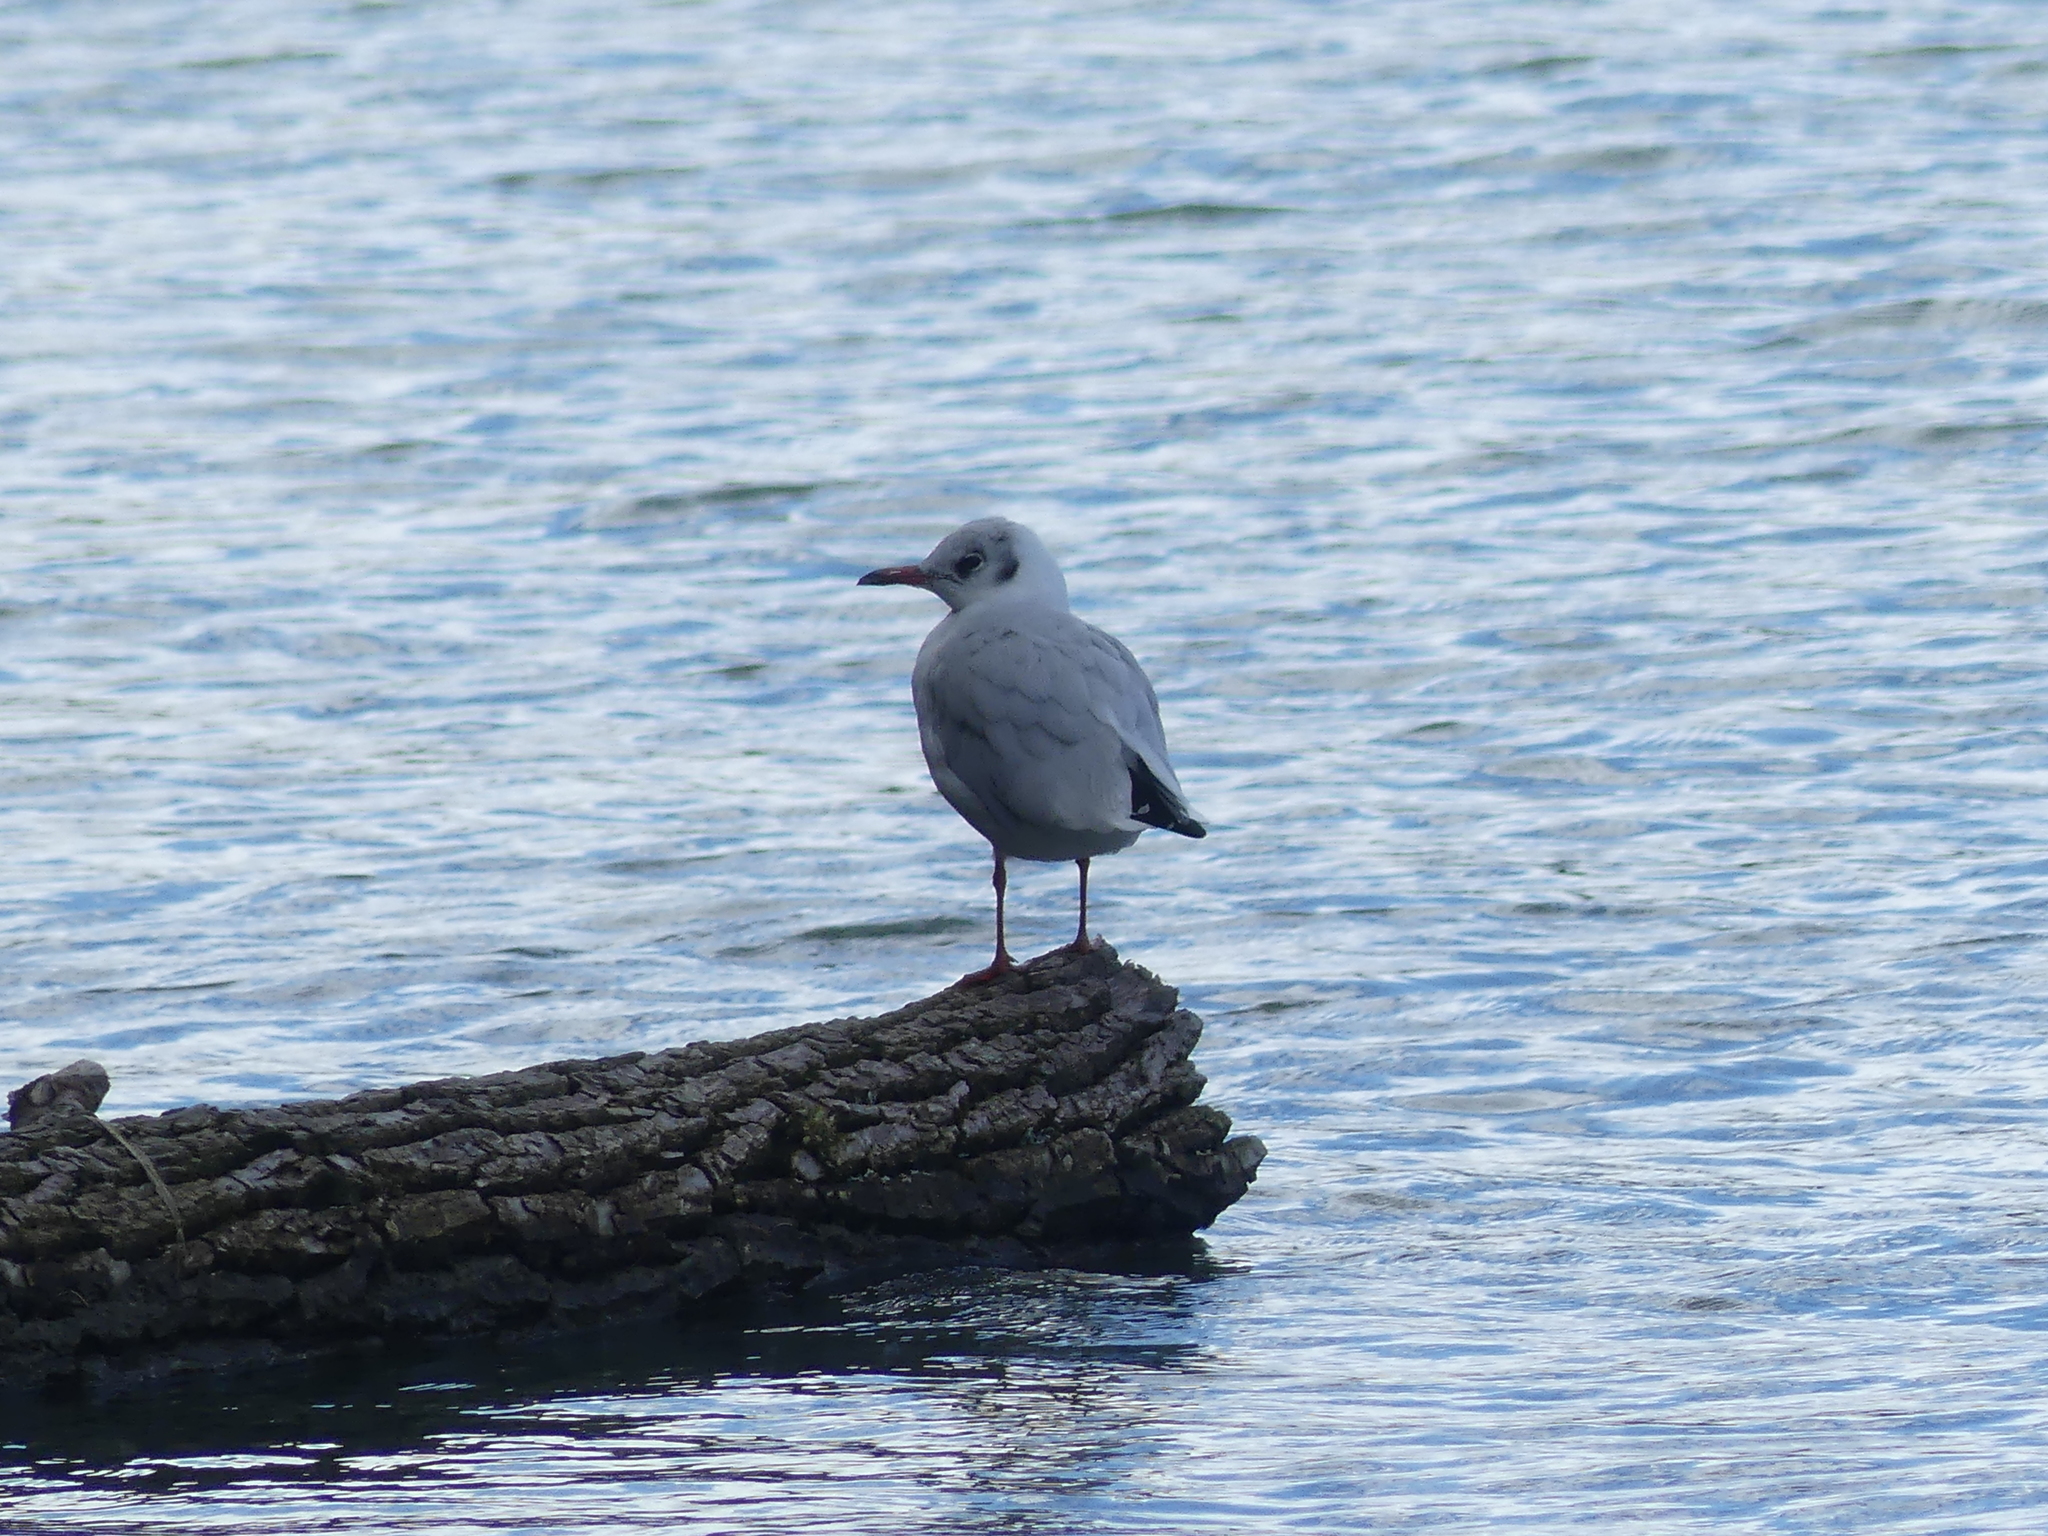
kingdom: Animalia
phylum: Chordata
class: Aves
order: Charadriiformes
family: Laridae
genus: Chroicocephalus
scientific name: Chroicocephalus ridibundus
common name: Black-headed gull
